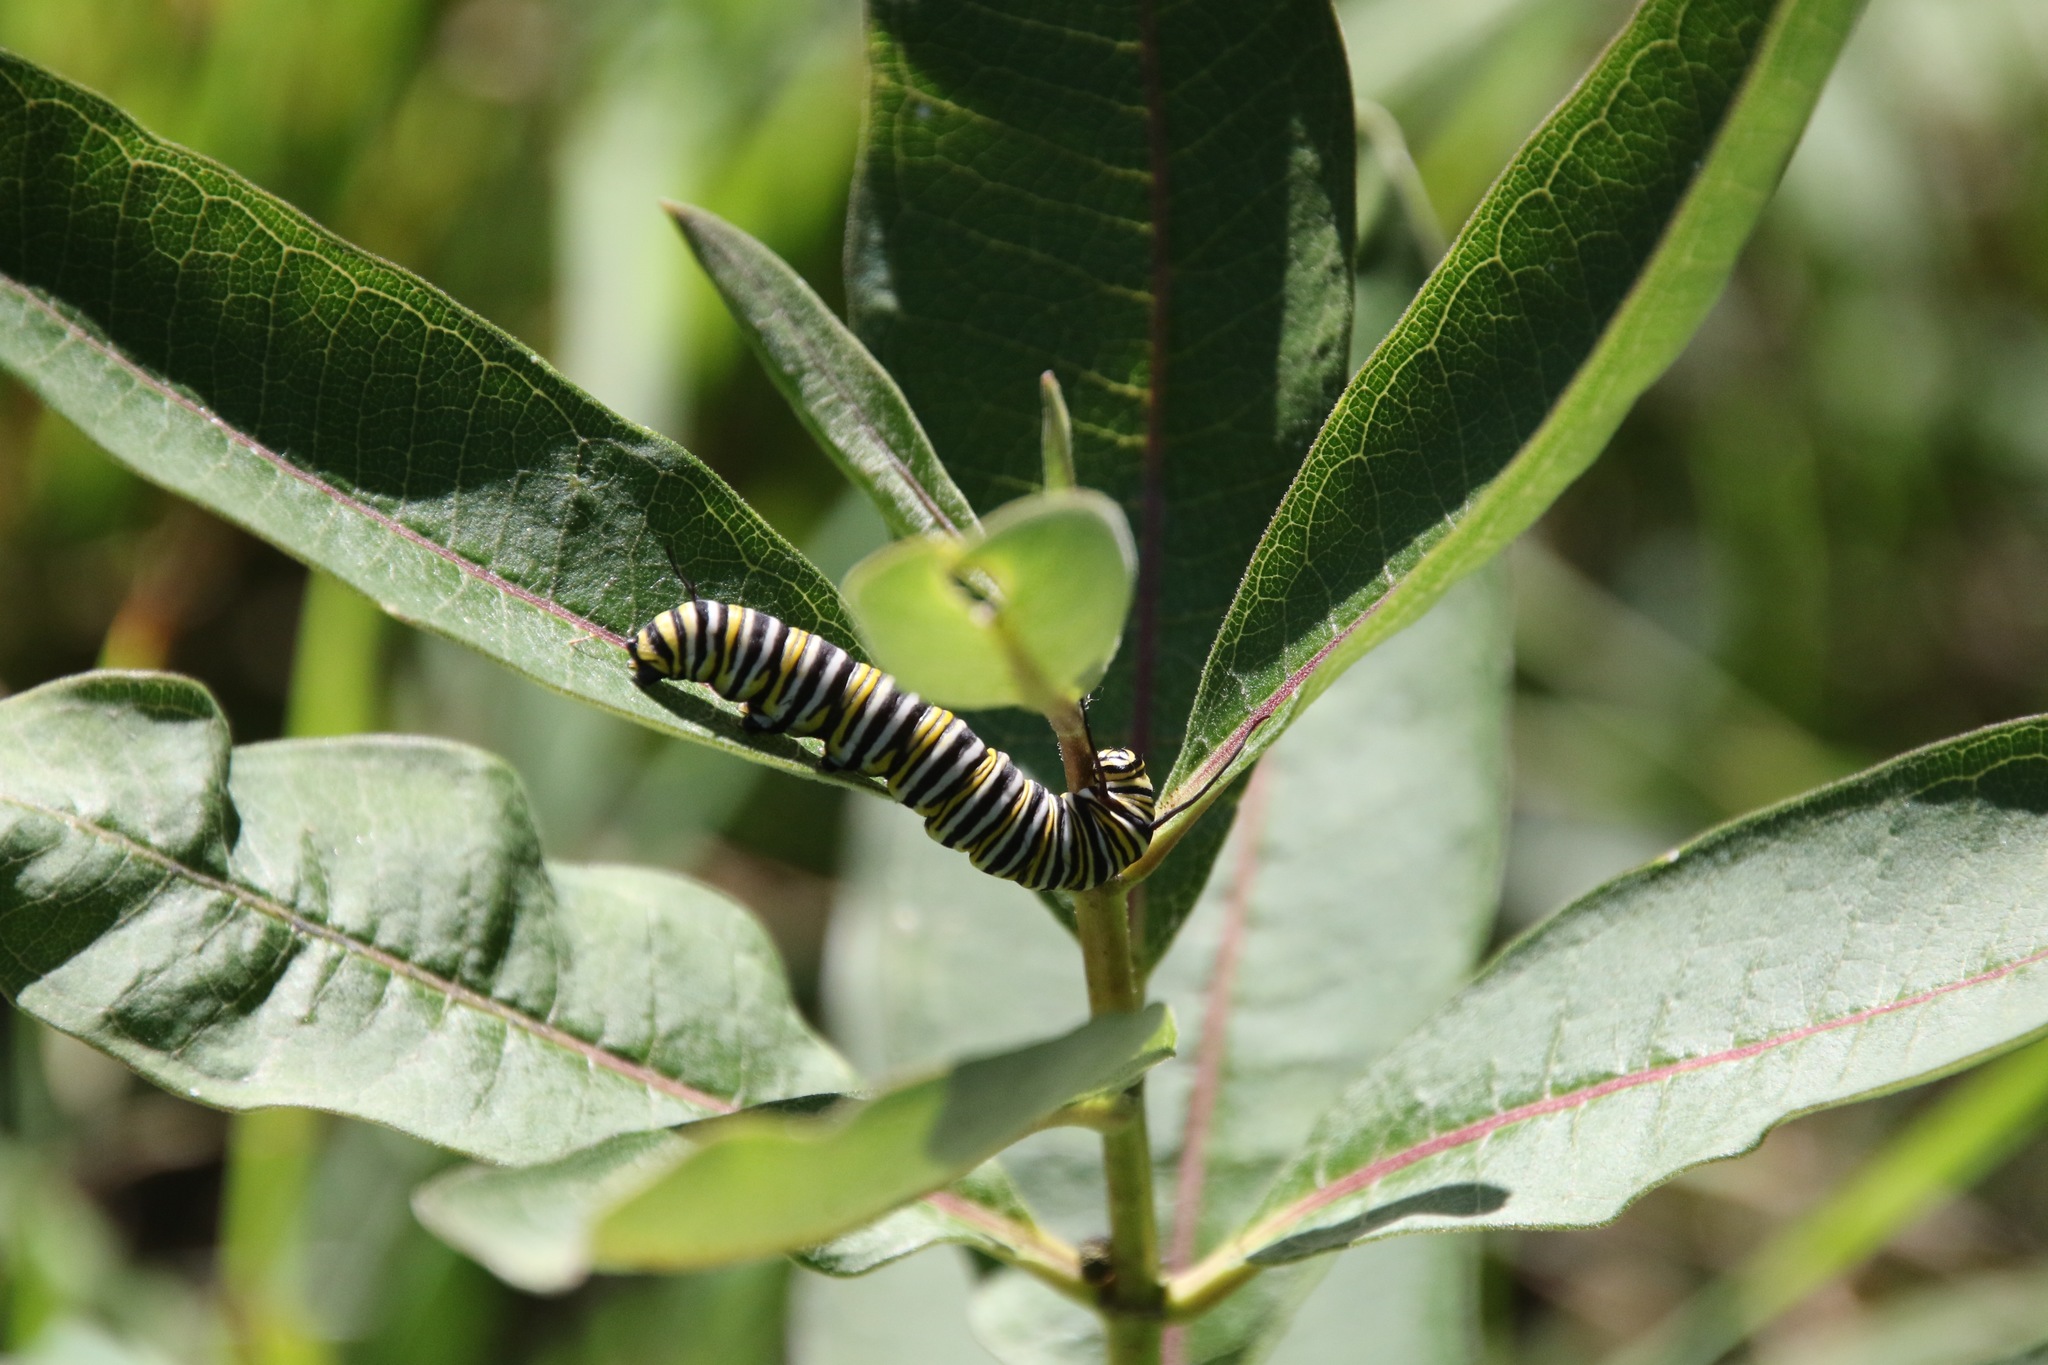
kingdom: Animalia
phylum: Arthropoda
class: Insecta
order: Lepidoptera
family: Nymphalidae
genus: Danaus
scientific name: Danaus plexippus
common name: Monarch
